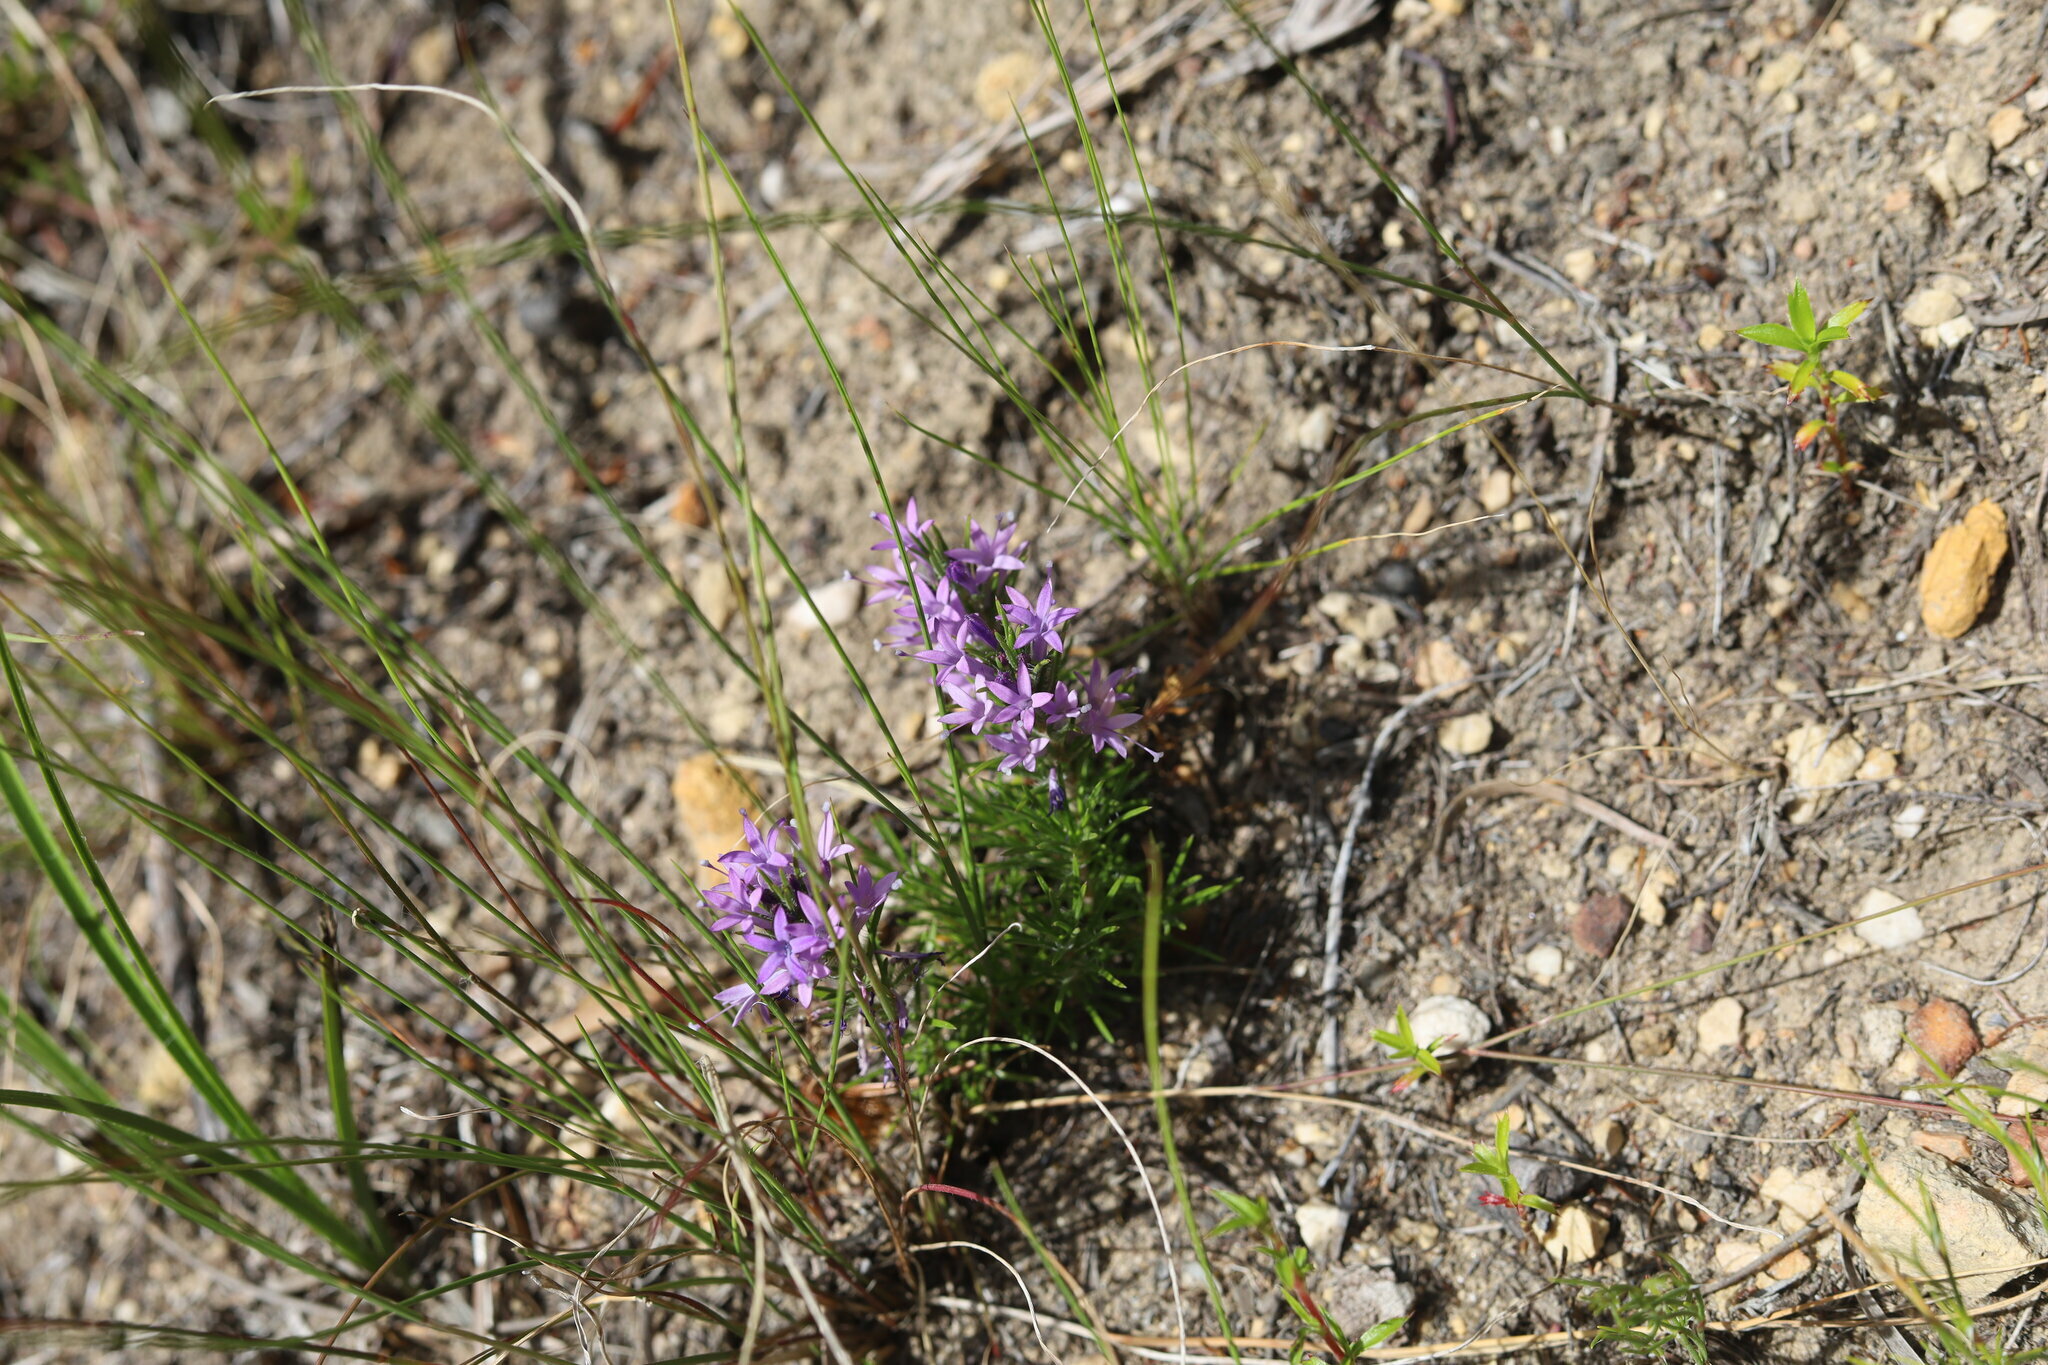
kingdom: Plantae
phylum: Tracheophyta
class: Magnoliopsida
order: Asterales
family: Campanulaceae
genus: Merciera
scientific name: Merciera azurea
